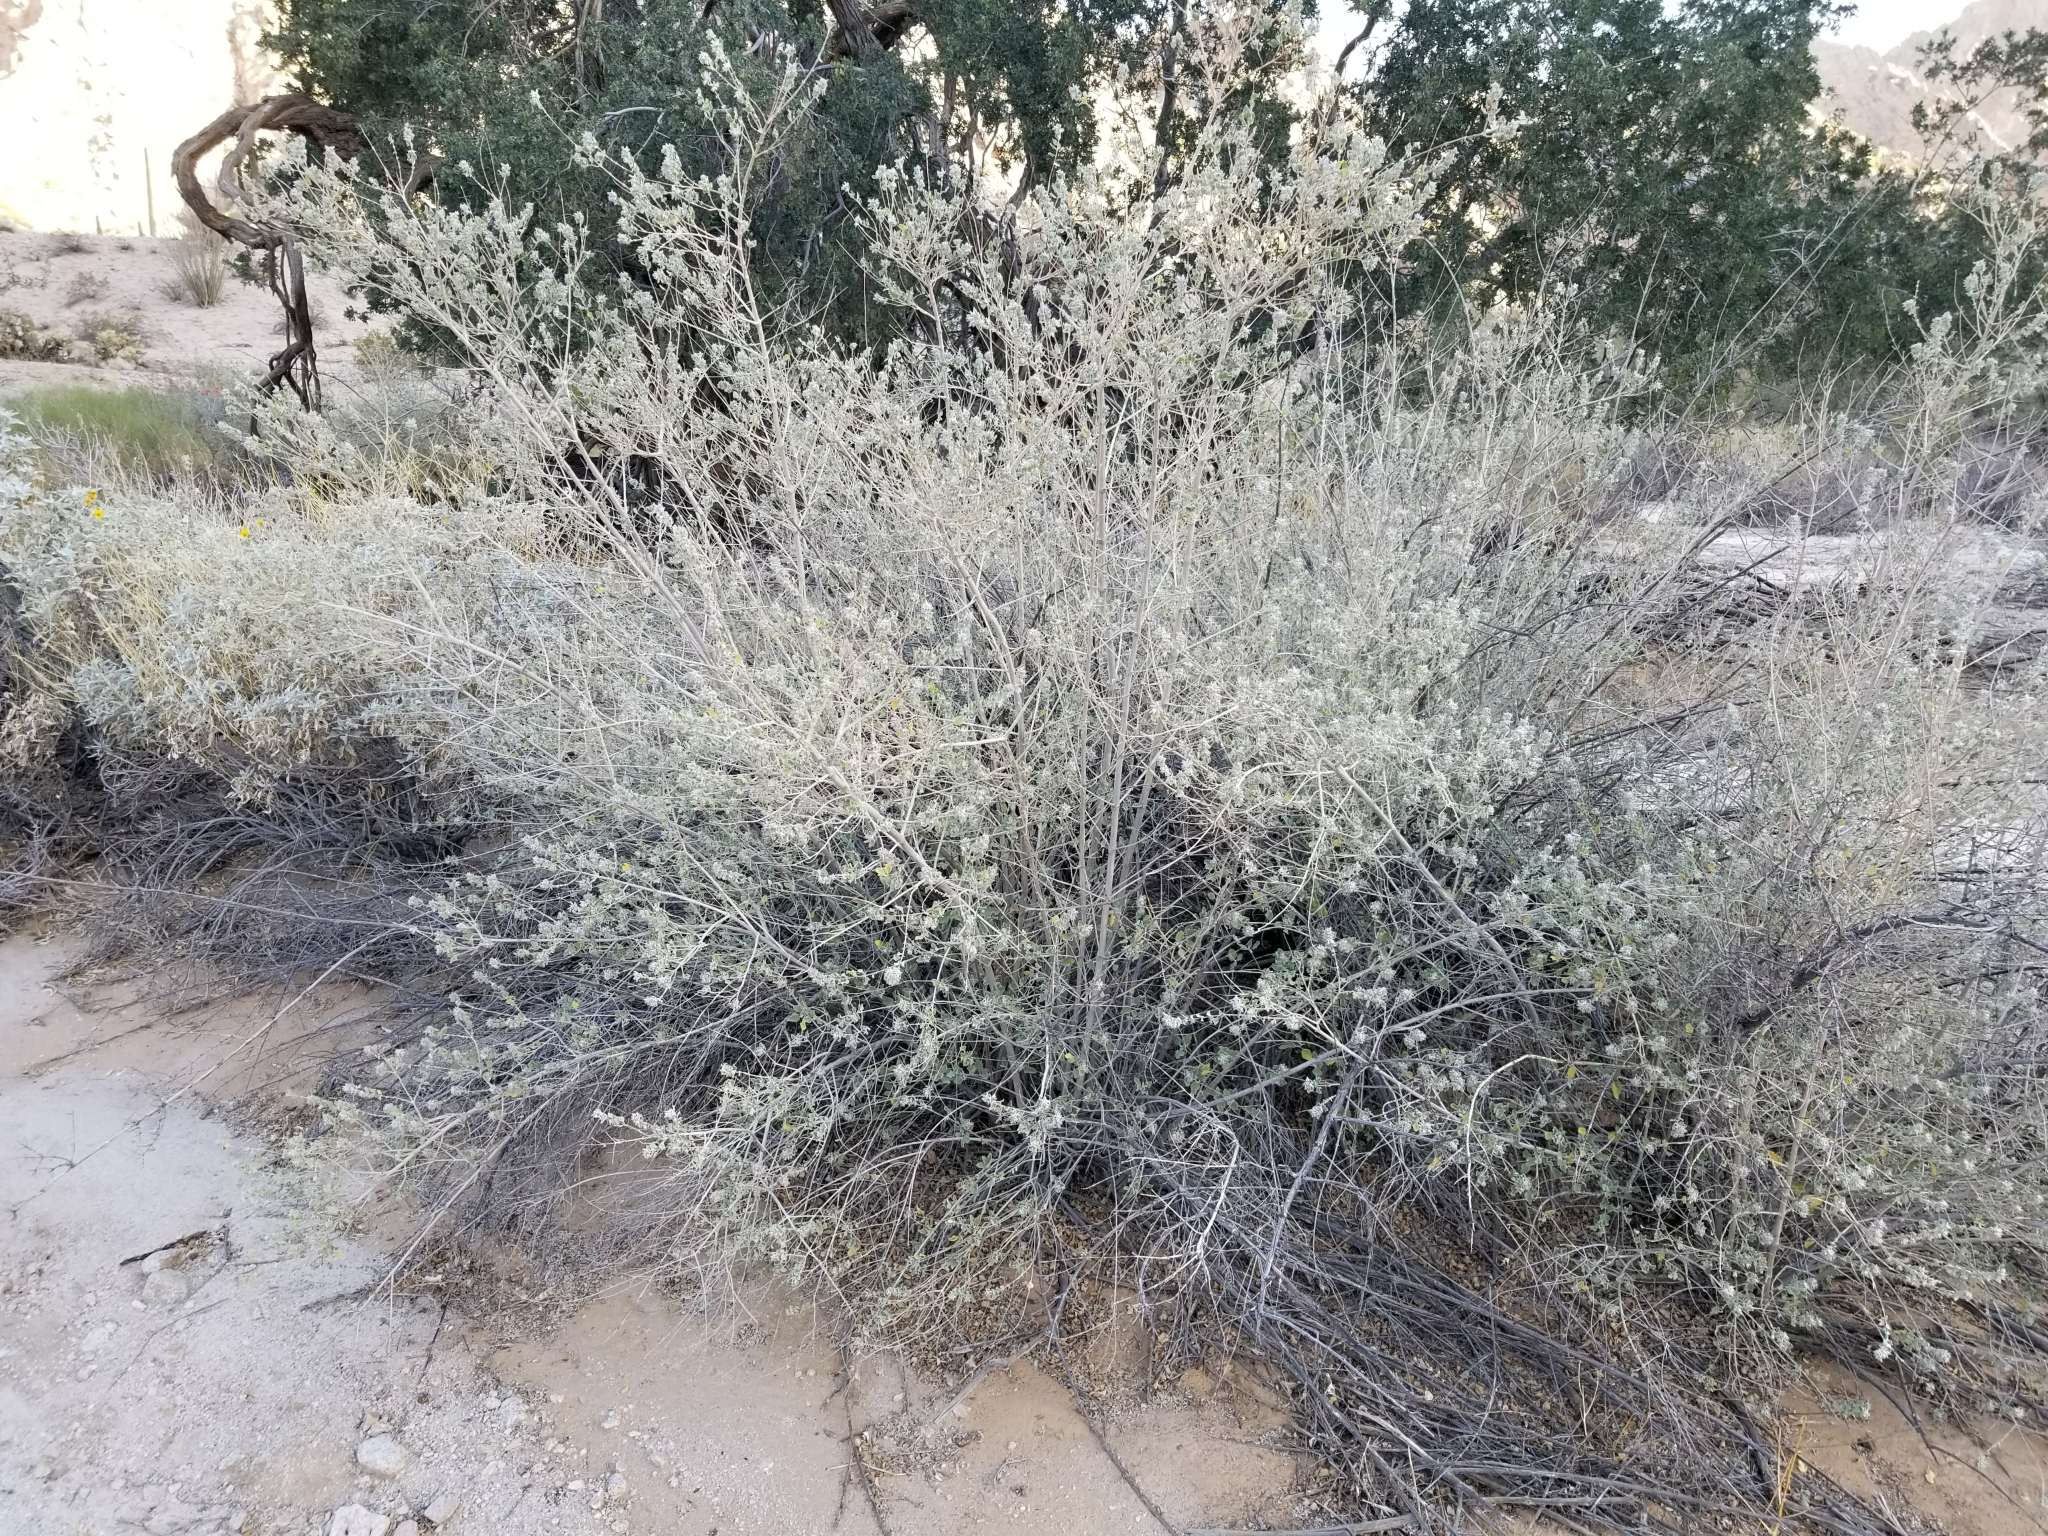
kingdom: Plantae
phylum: Tracheophyta
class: Magnoliopsida
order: Lamiales
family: Lamiaceae
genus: Condea
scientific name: Condea emoryi
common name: Chia
